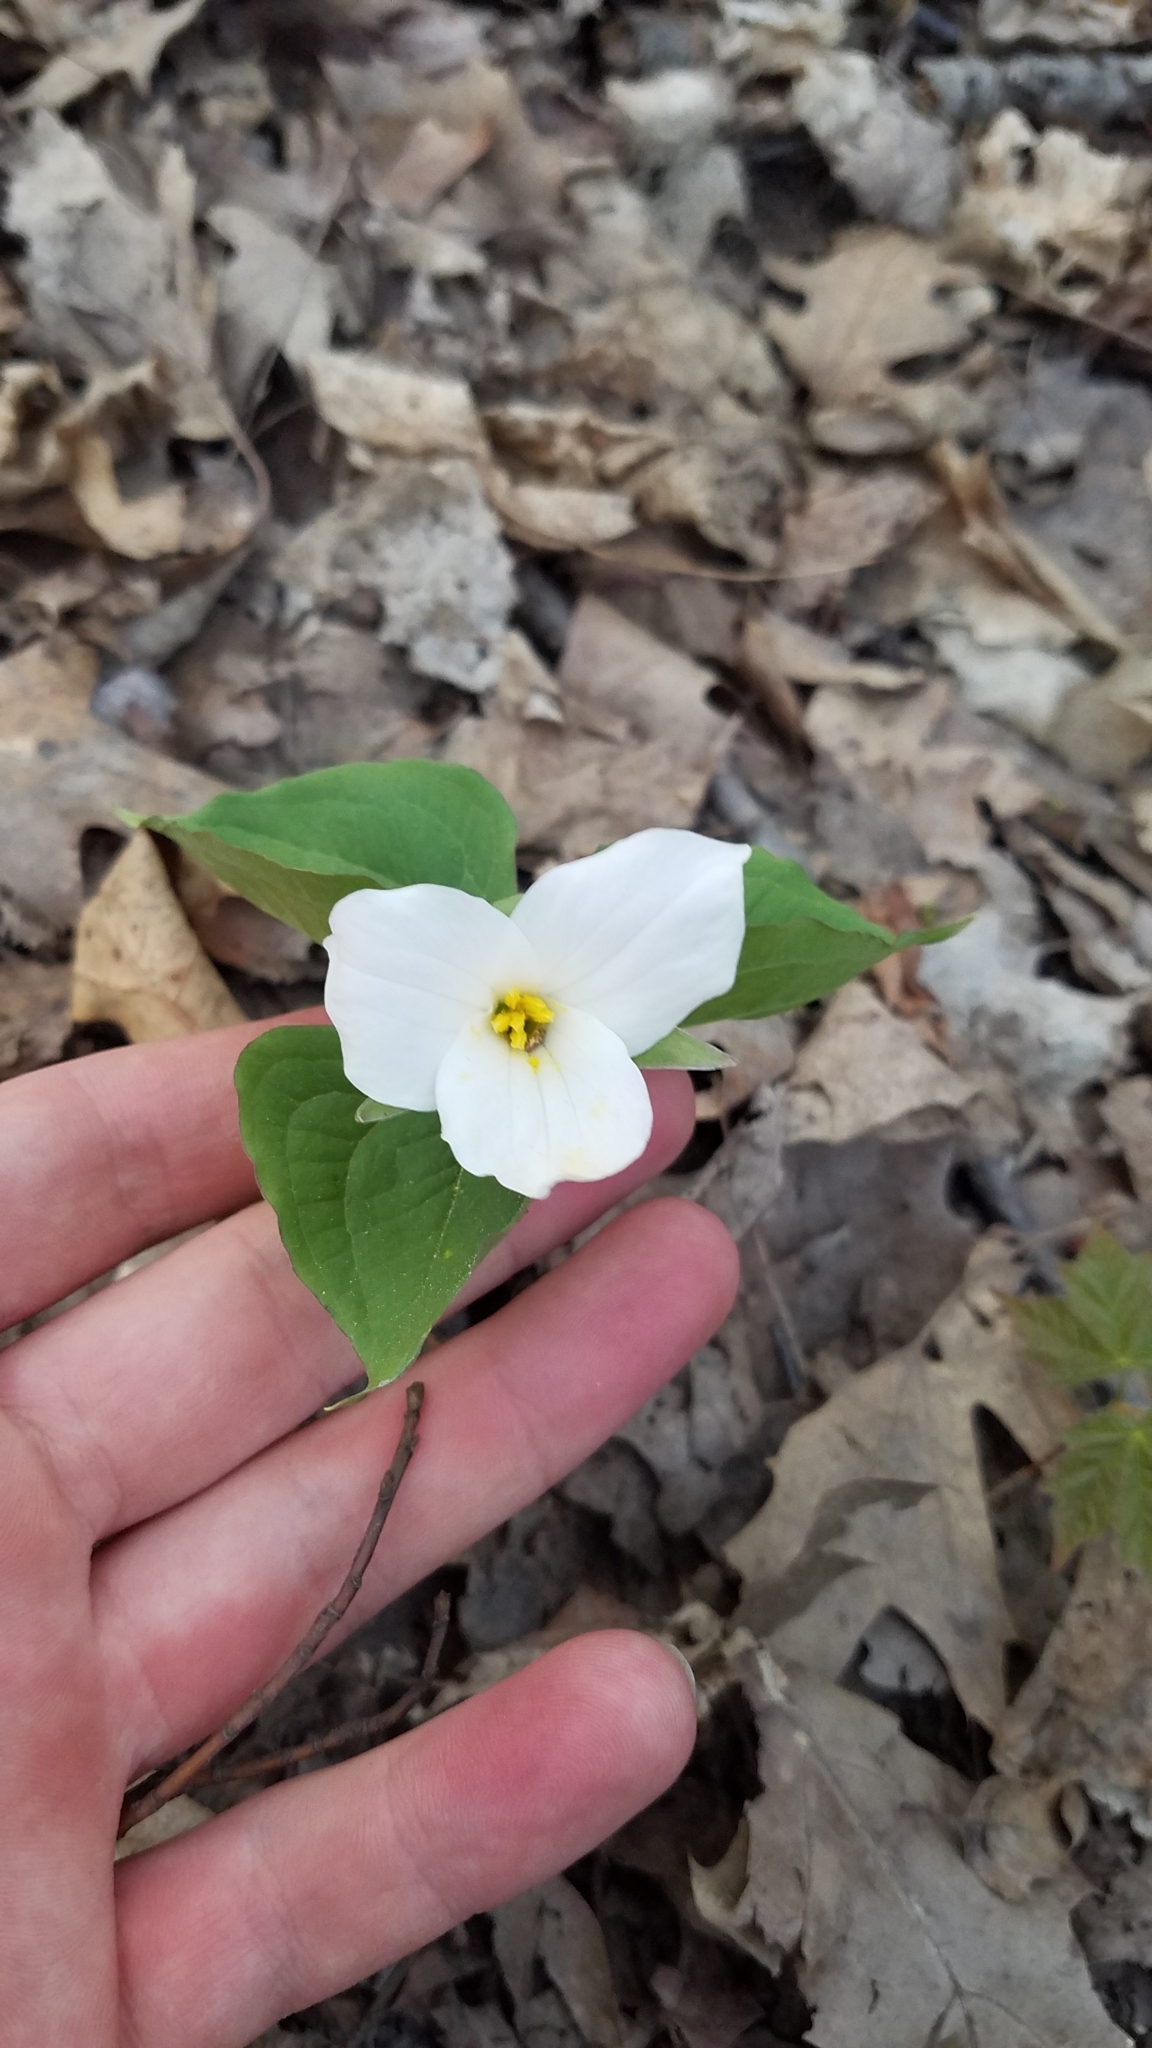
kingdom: Plantae
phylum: Tracheophyta
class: Liliopsida
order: Liliales
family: Melanthiaceae
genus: Trillium
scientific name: Trillium grandiflorum
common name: Great white trillium
